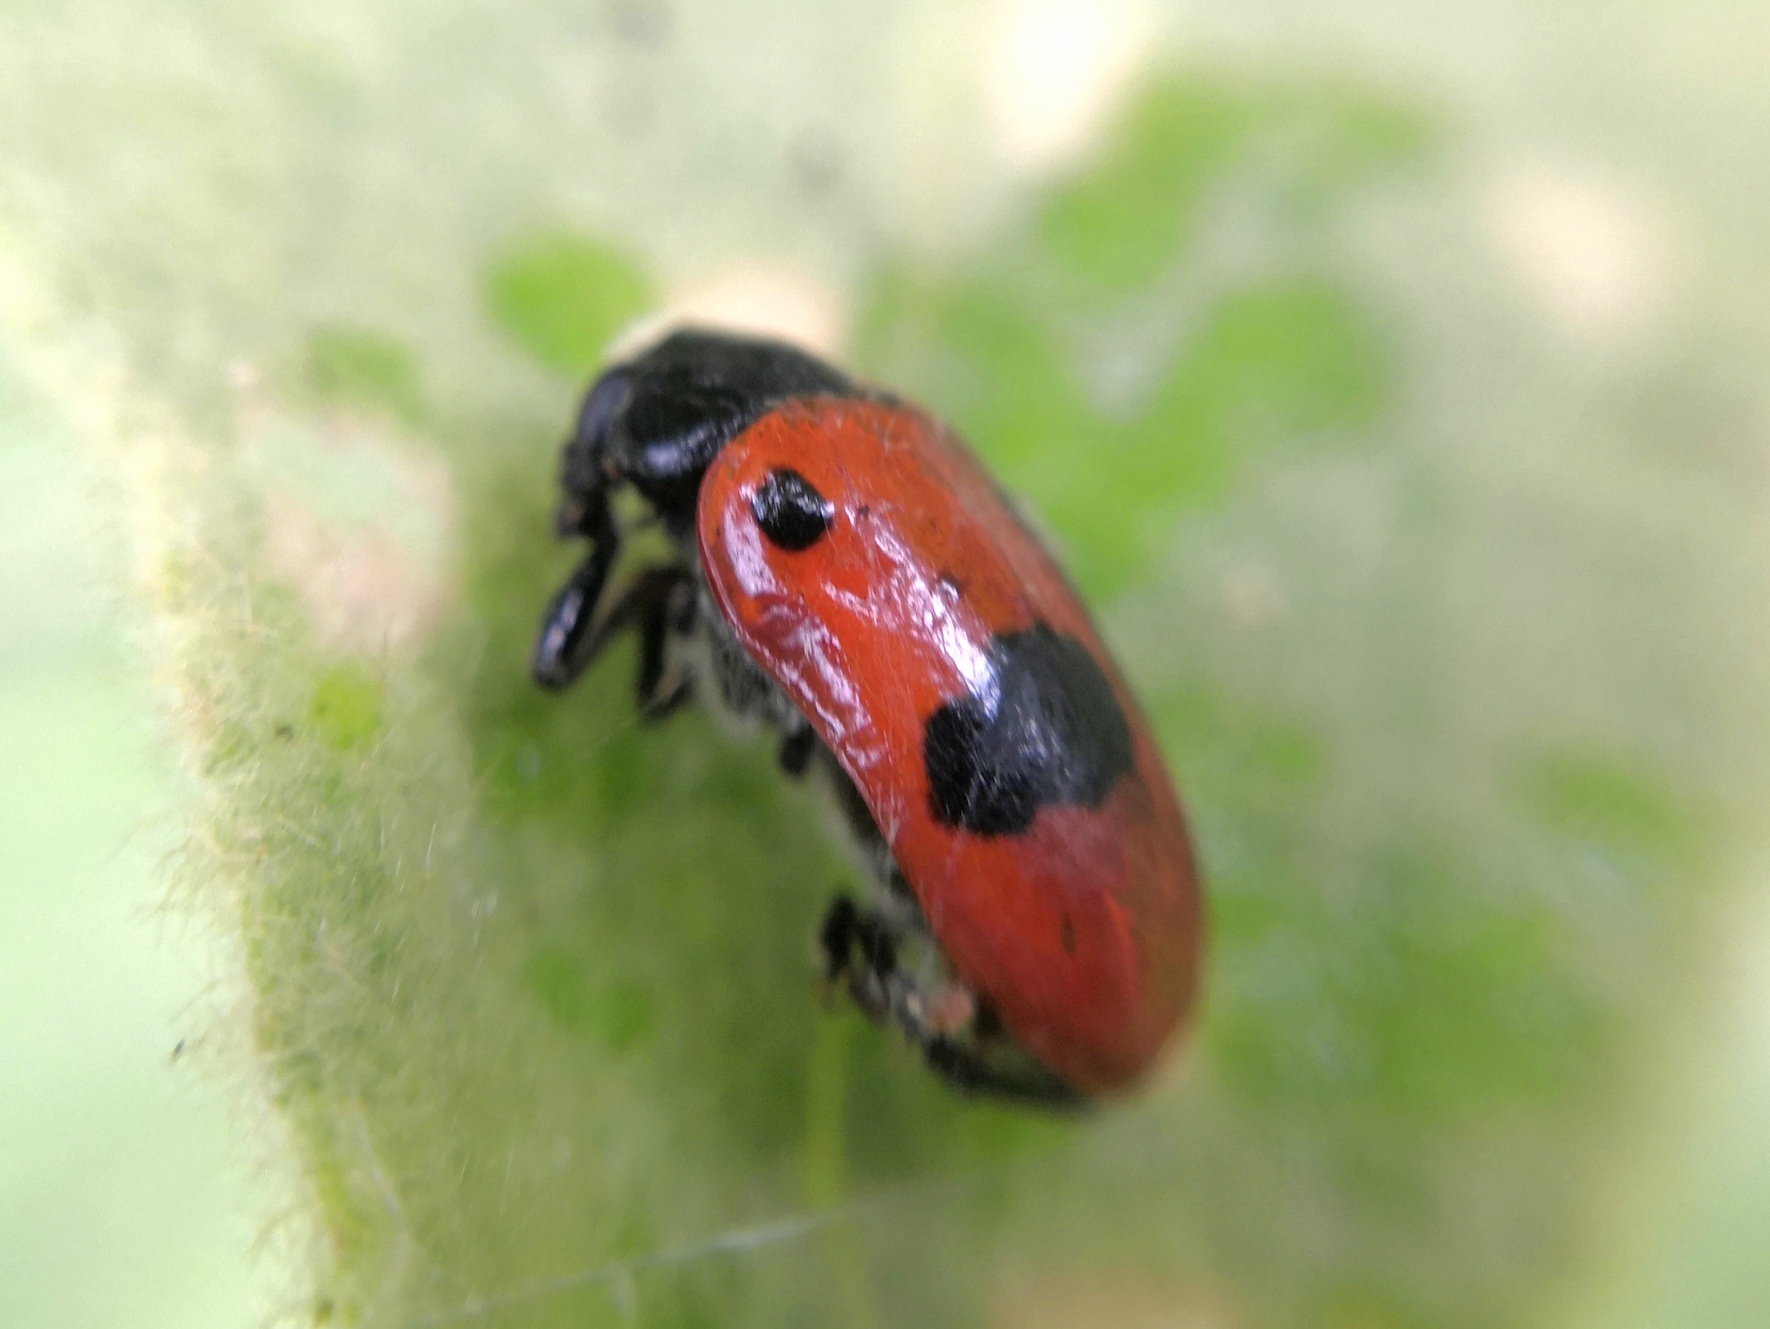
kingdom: Animalia
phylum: Arthropoda
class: Insecta
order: Coleoptera
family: Chrysomelidae
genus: Clytra
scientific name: Clytra laeviuscula
